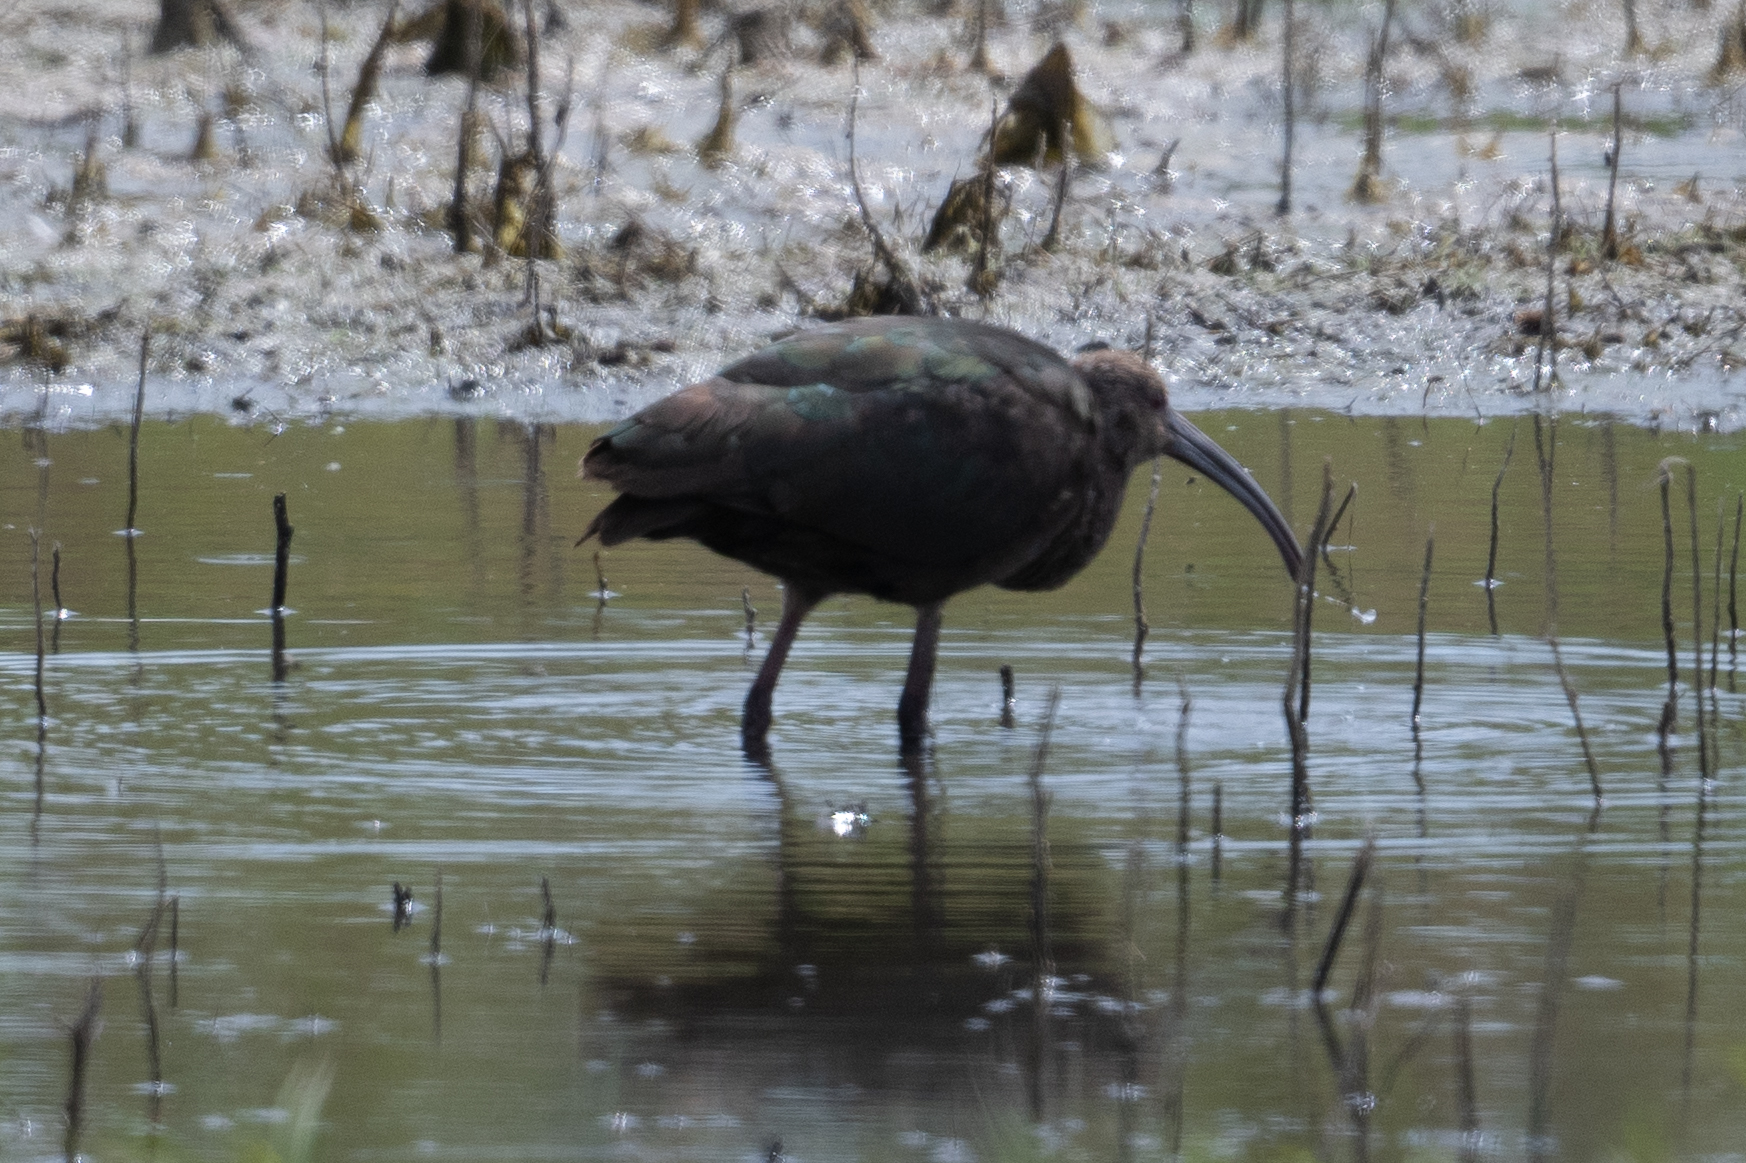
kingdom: Animalia
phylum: Chordata
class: Aves
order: Pelecaniformes
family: Threskiornithidae
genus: Plegadis
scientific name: Plegadis chihi
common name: White-faced ibis
